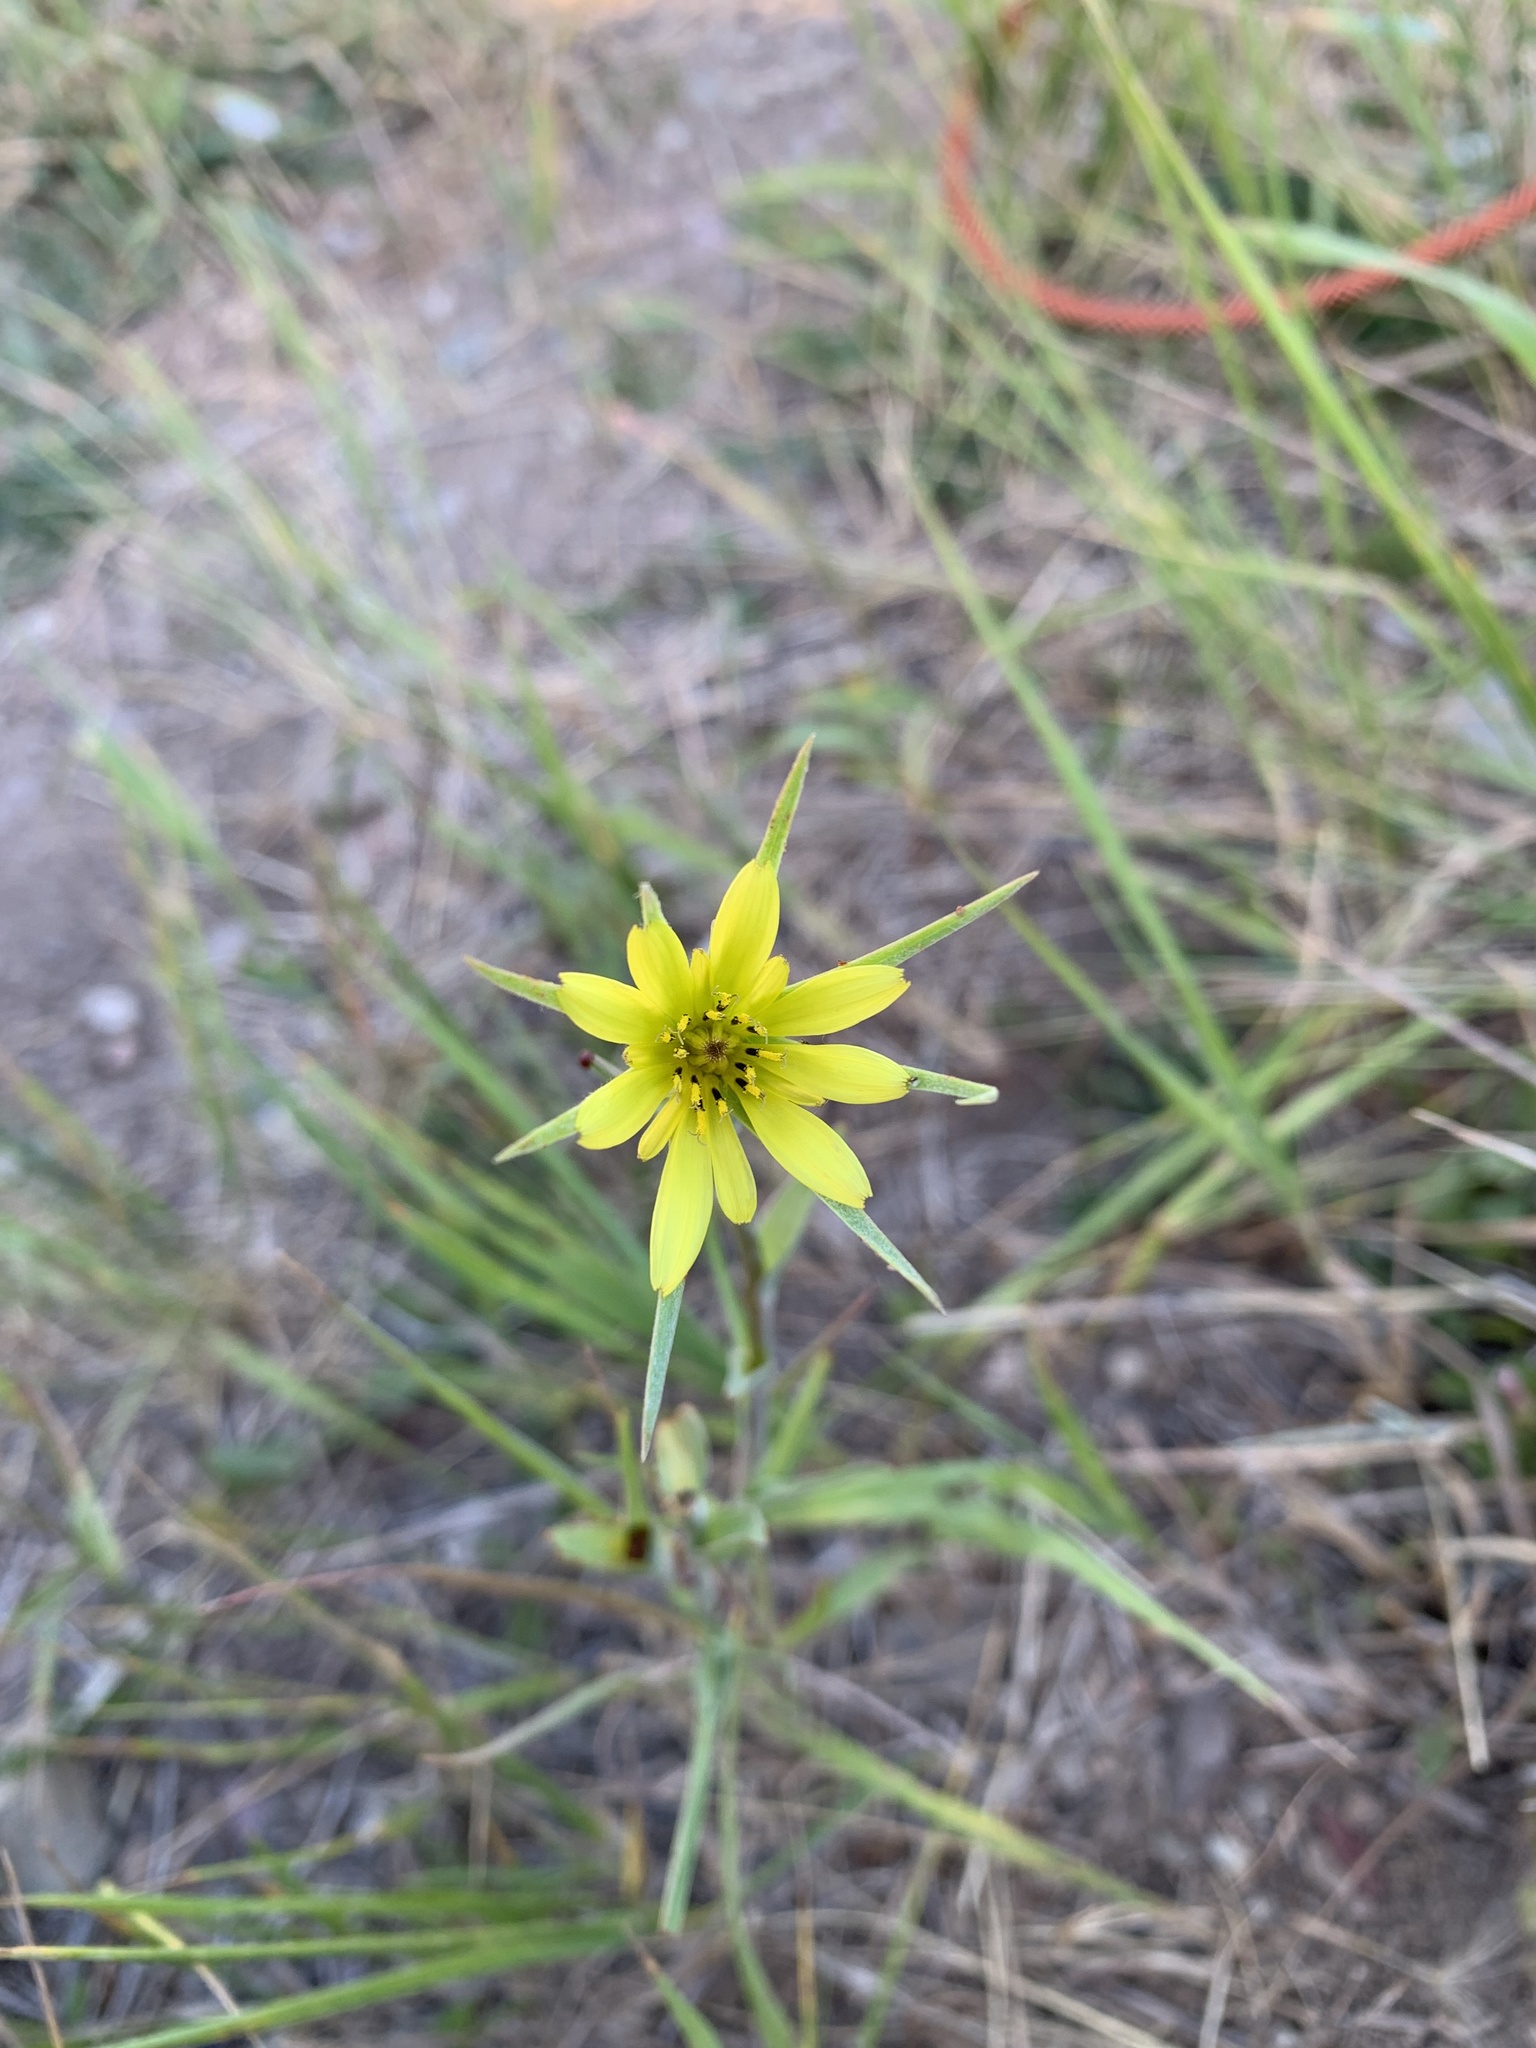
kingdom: Plantae
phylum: Tracheophyta
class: Magnoliopsida
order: Asterales
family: Asteraceae
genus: Tragopogon
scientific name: Tragopogon dubius
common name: Yellow salsify
